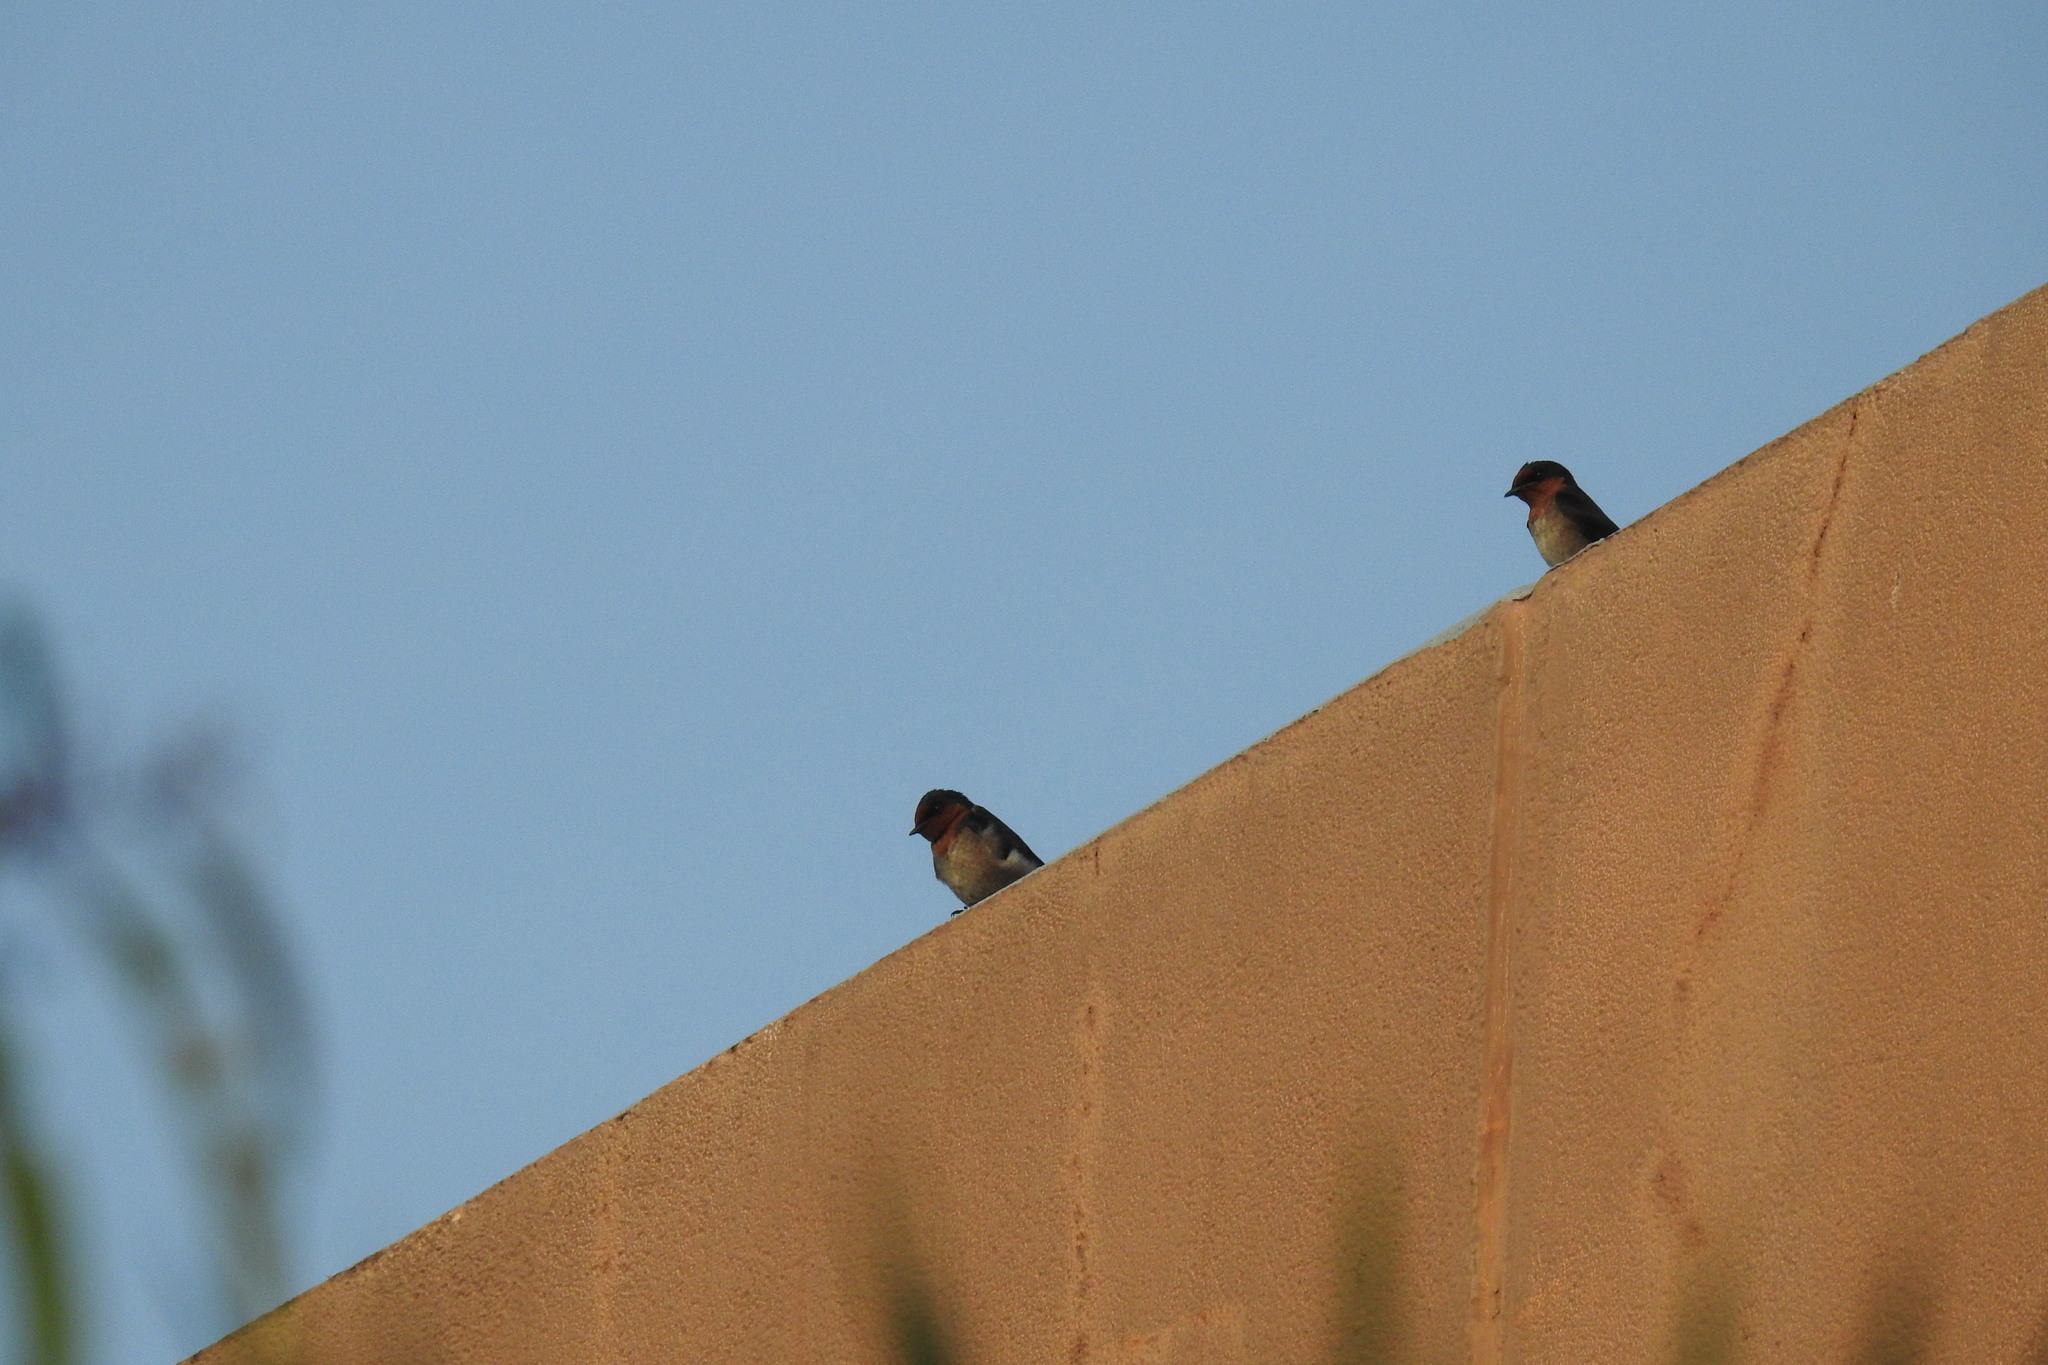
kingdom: Animalia
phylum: Chordata
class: Aves
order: Passeriformes
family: Hirundinidae
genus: Hirundo
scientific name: Hirundo tahitica
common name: Pacific swallow
